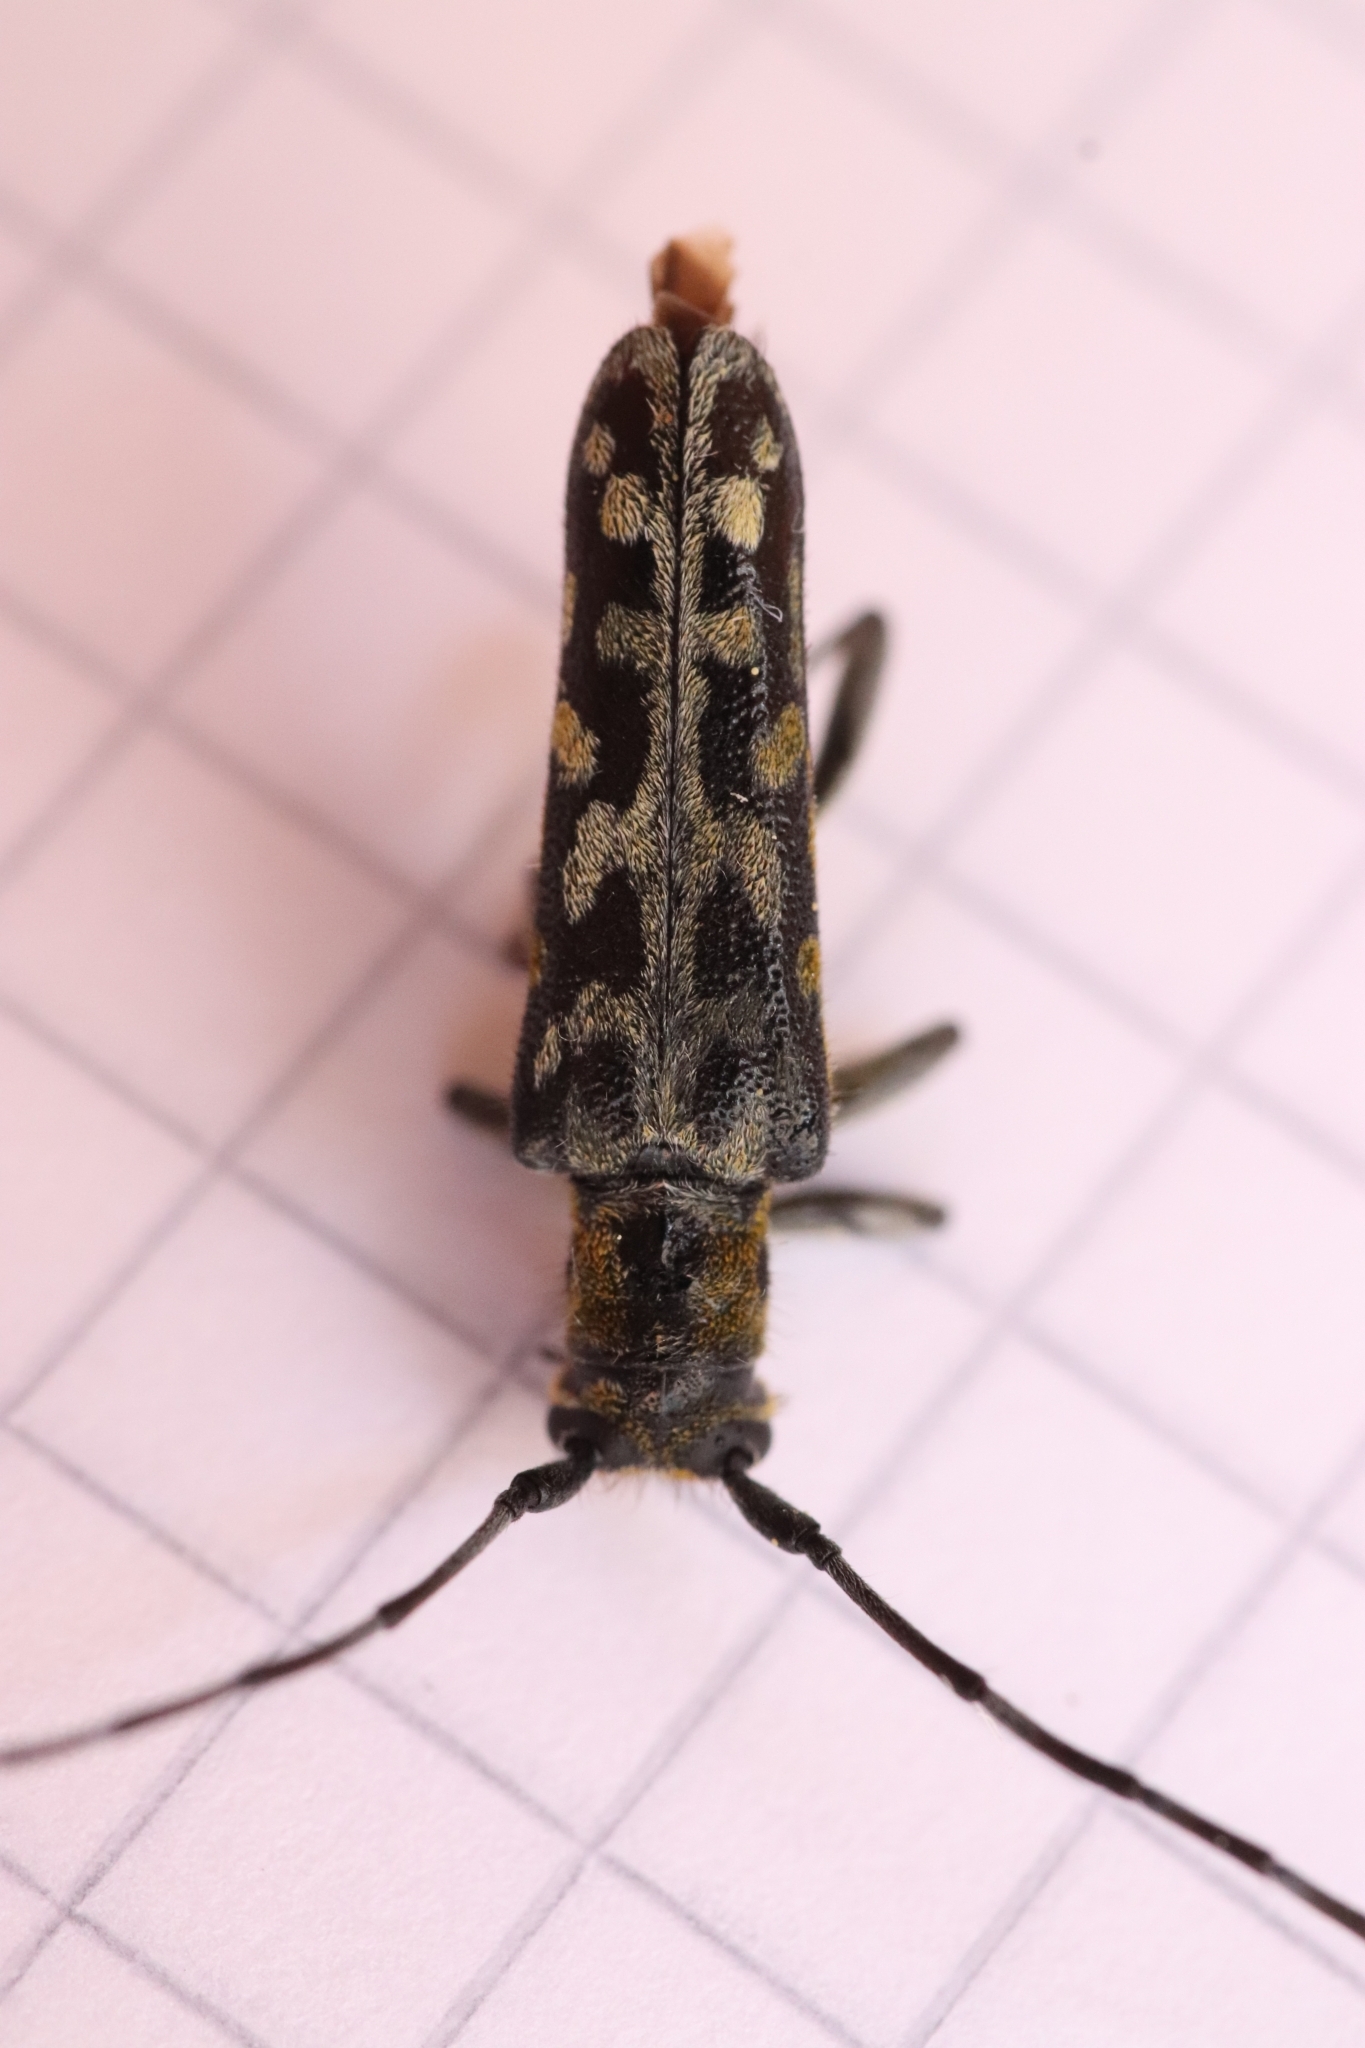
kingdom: Animalia
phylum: Arthropoda
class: Insecta
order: Coleoptera
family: Cerambycidae
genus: Saperda
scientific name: Saperda scalaris
